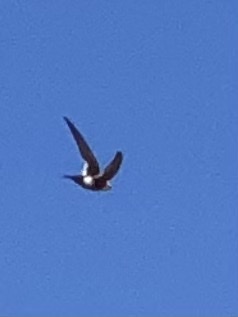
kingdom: Animalia
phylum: Chordata
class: Aves
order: Apodiformes
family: Apodidae
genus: Aeronautes
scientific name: Aeronautes saxatalis
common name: White-throated swift
